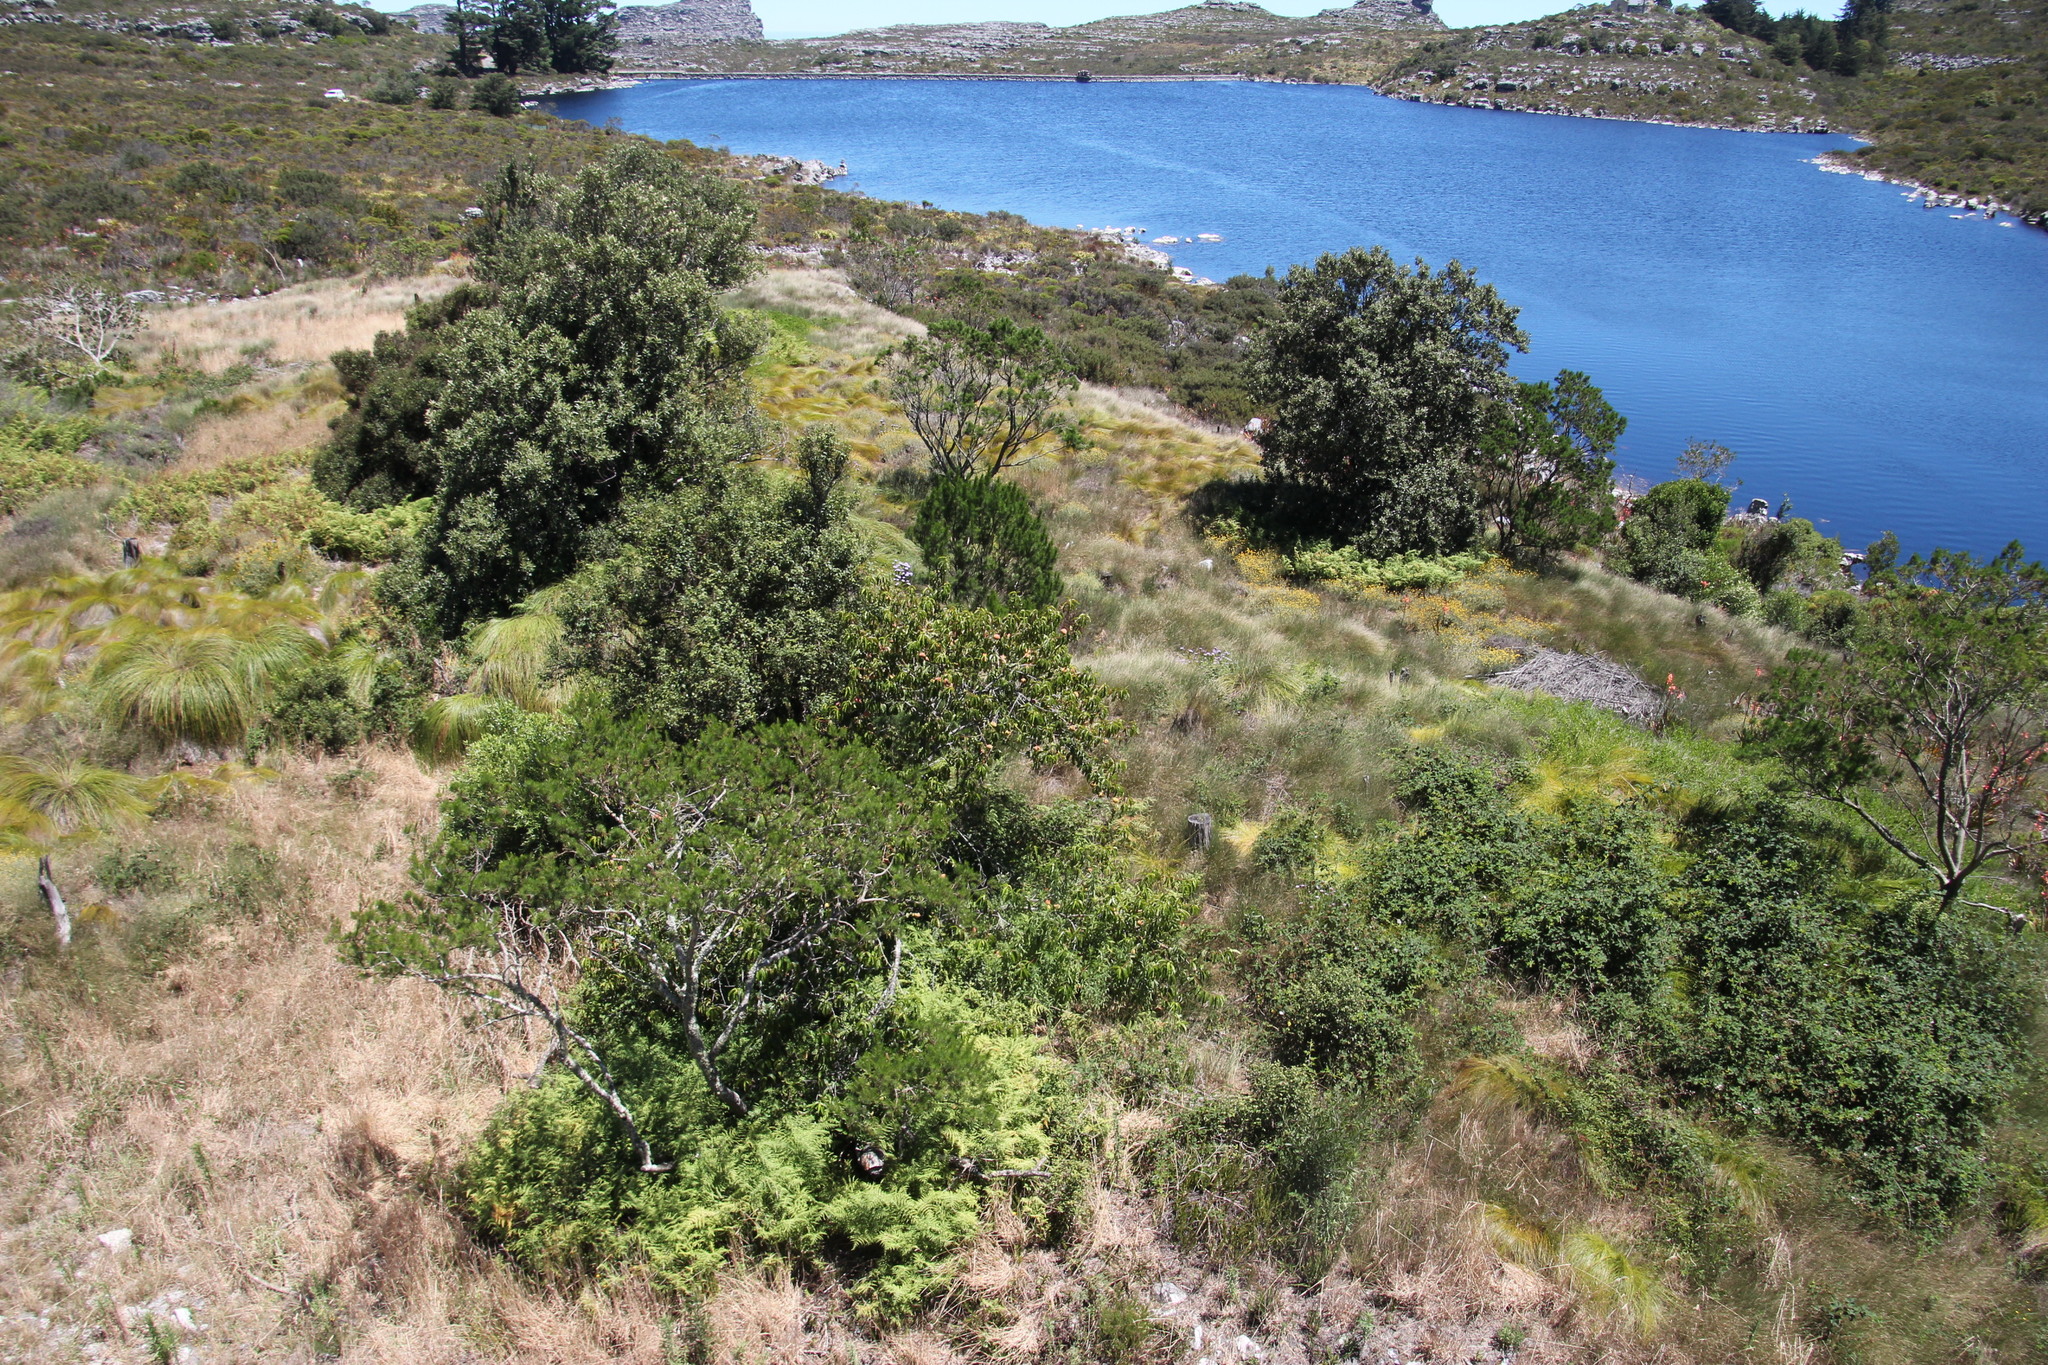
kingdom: Plantae
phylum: Tracheophyta
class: Magnoliopsida
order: Rosales
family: Rosaceae
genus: Prunus
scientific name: Prunus persica
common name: Peach
